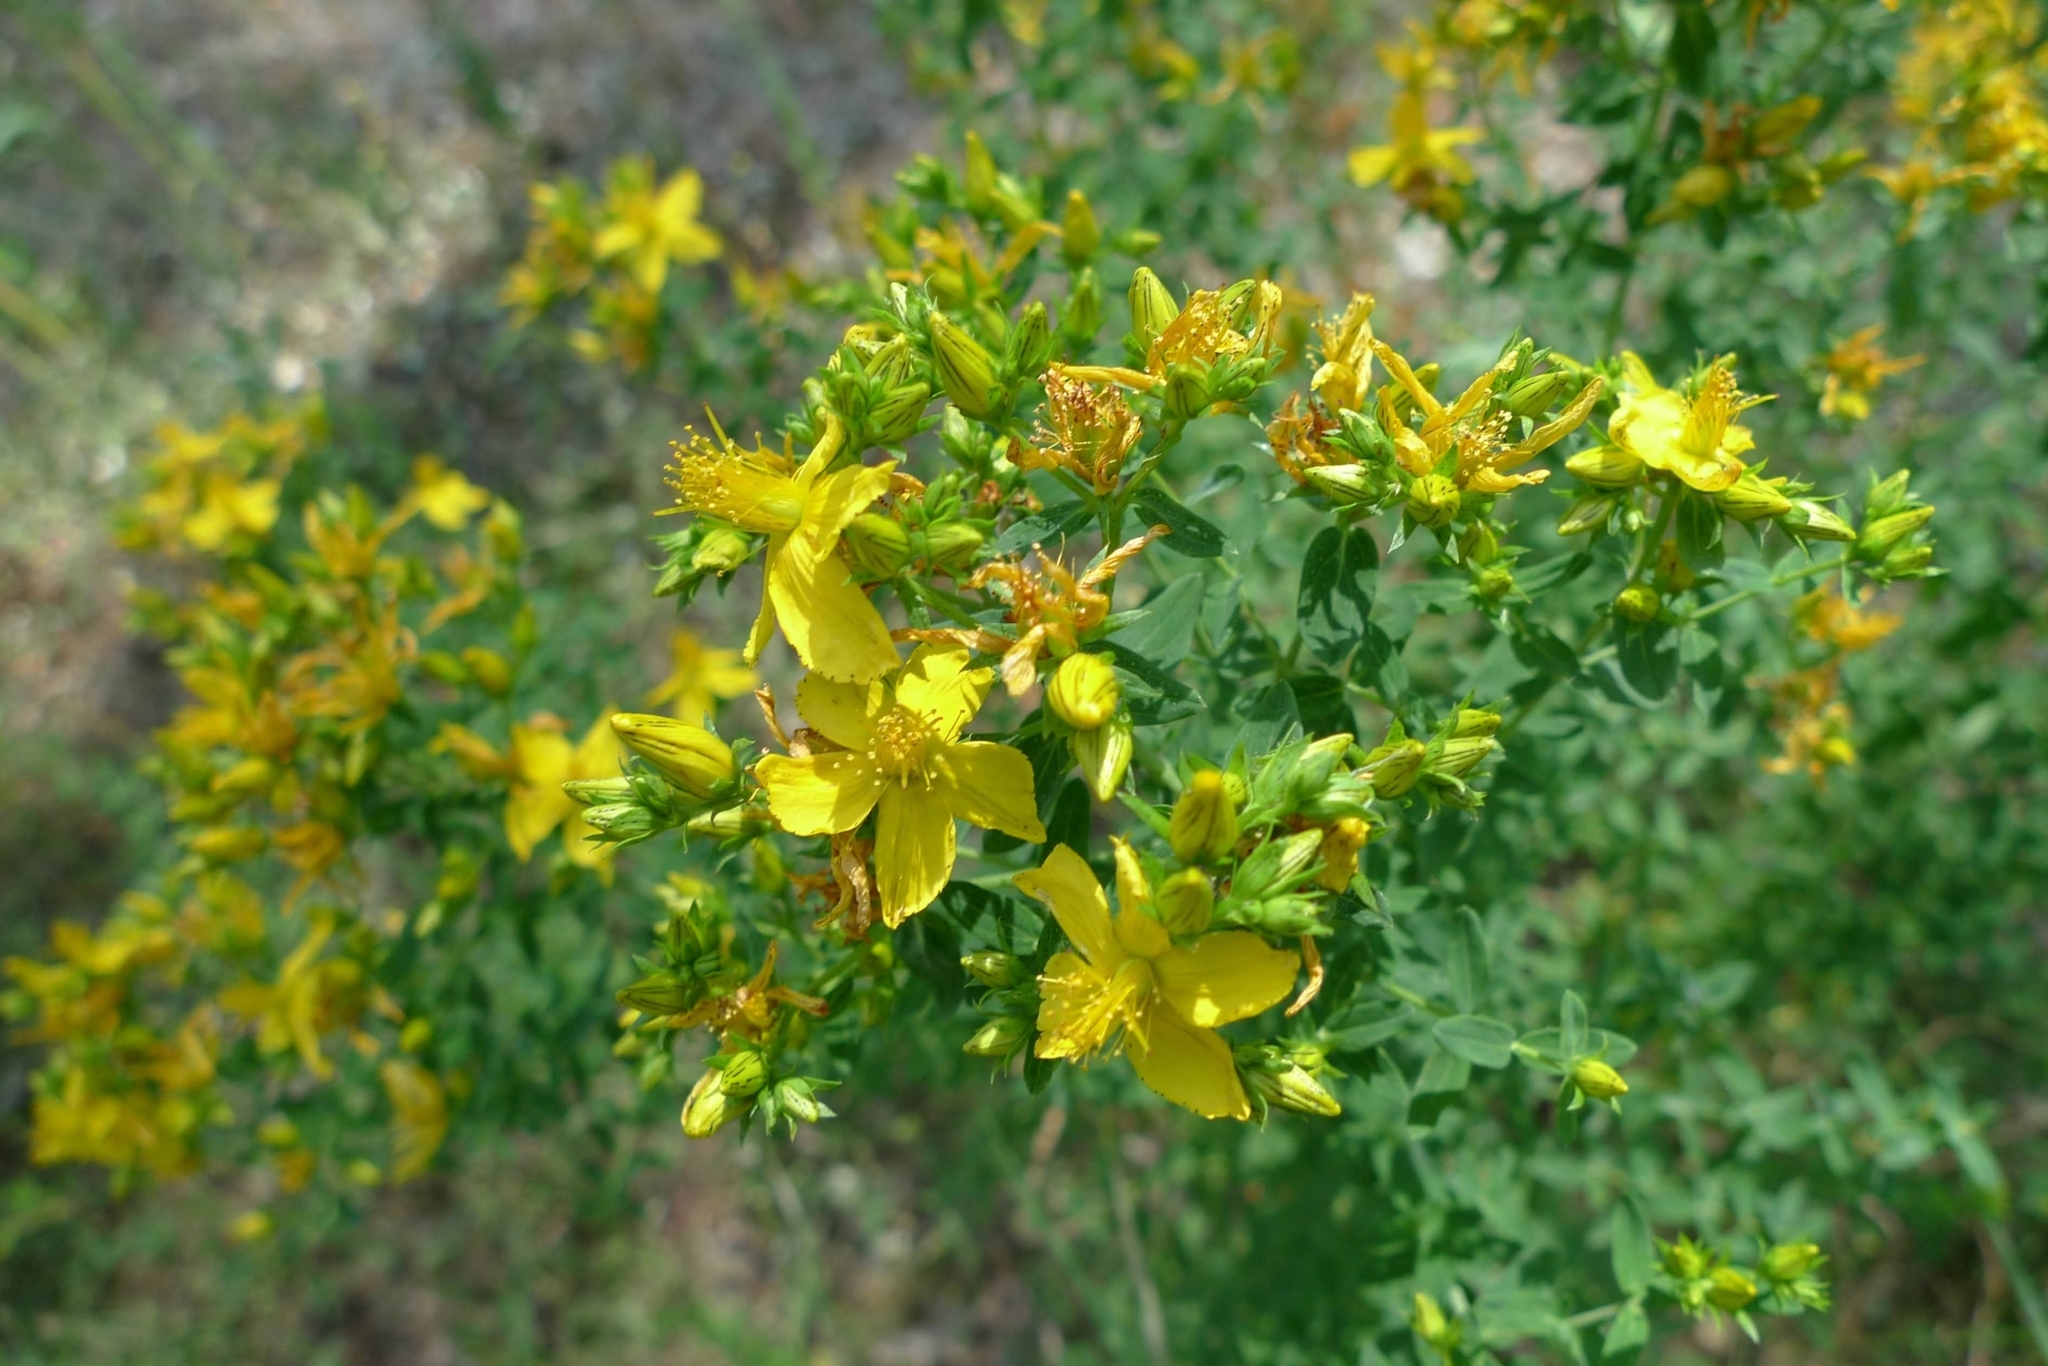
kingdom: Plantae
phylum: Tracheophyta
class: Magnoliopsida
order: Malpighiales
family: Hypericaceae
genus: Hypericum
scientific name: Hypericum perforatum
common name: Common st. johnswort
